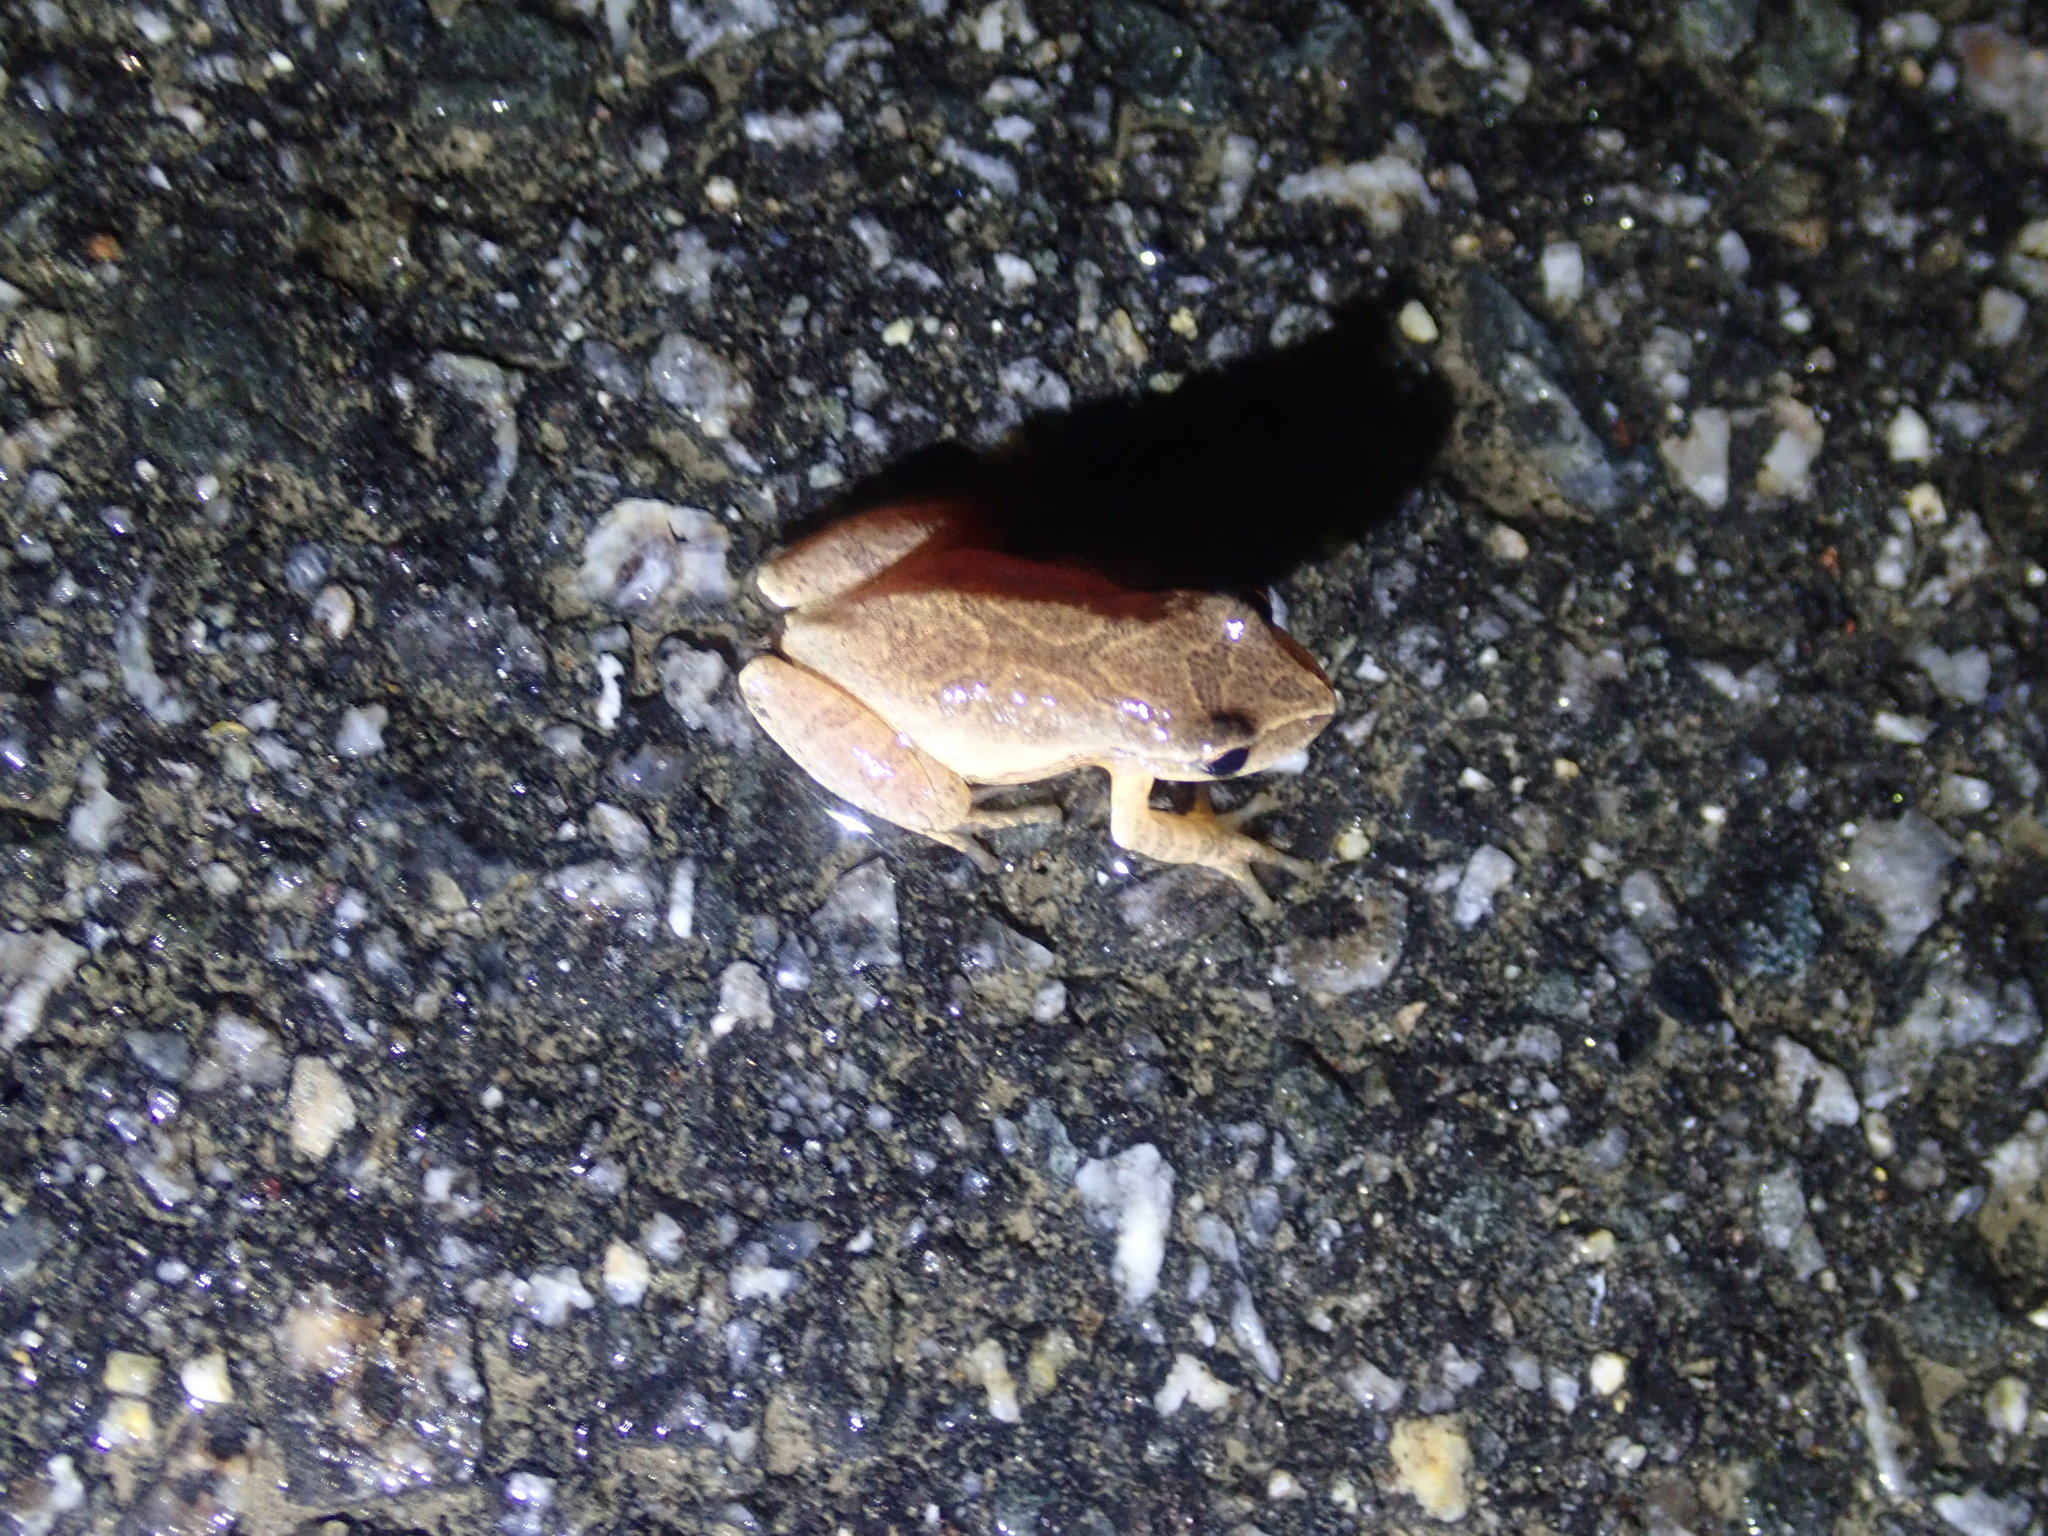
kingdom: Animalia
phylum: Chordata
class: Amphibia
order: Anura
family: Hylidae
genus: Pseudacris
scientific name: Pseudacris crucifer
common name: Spring peeper
